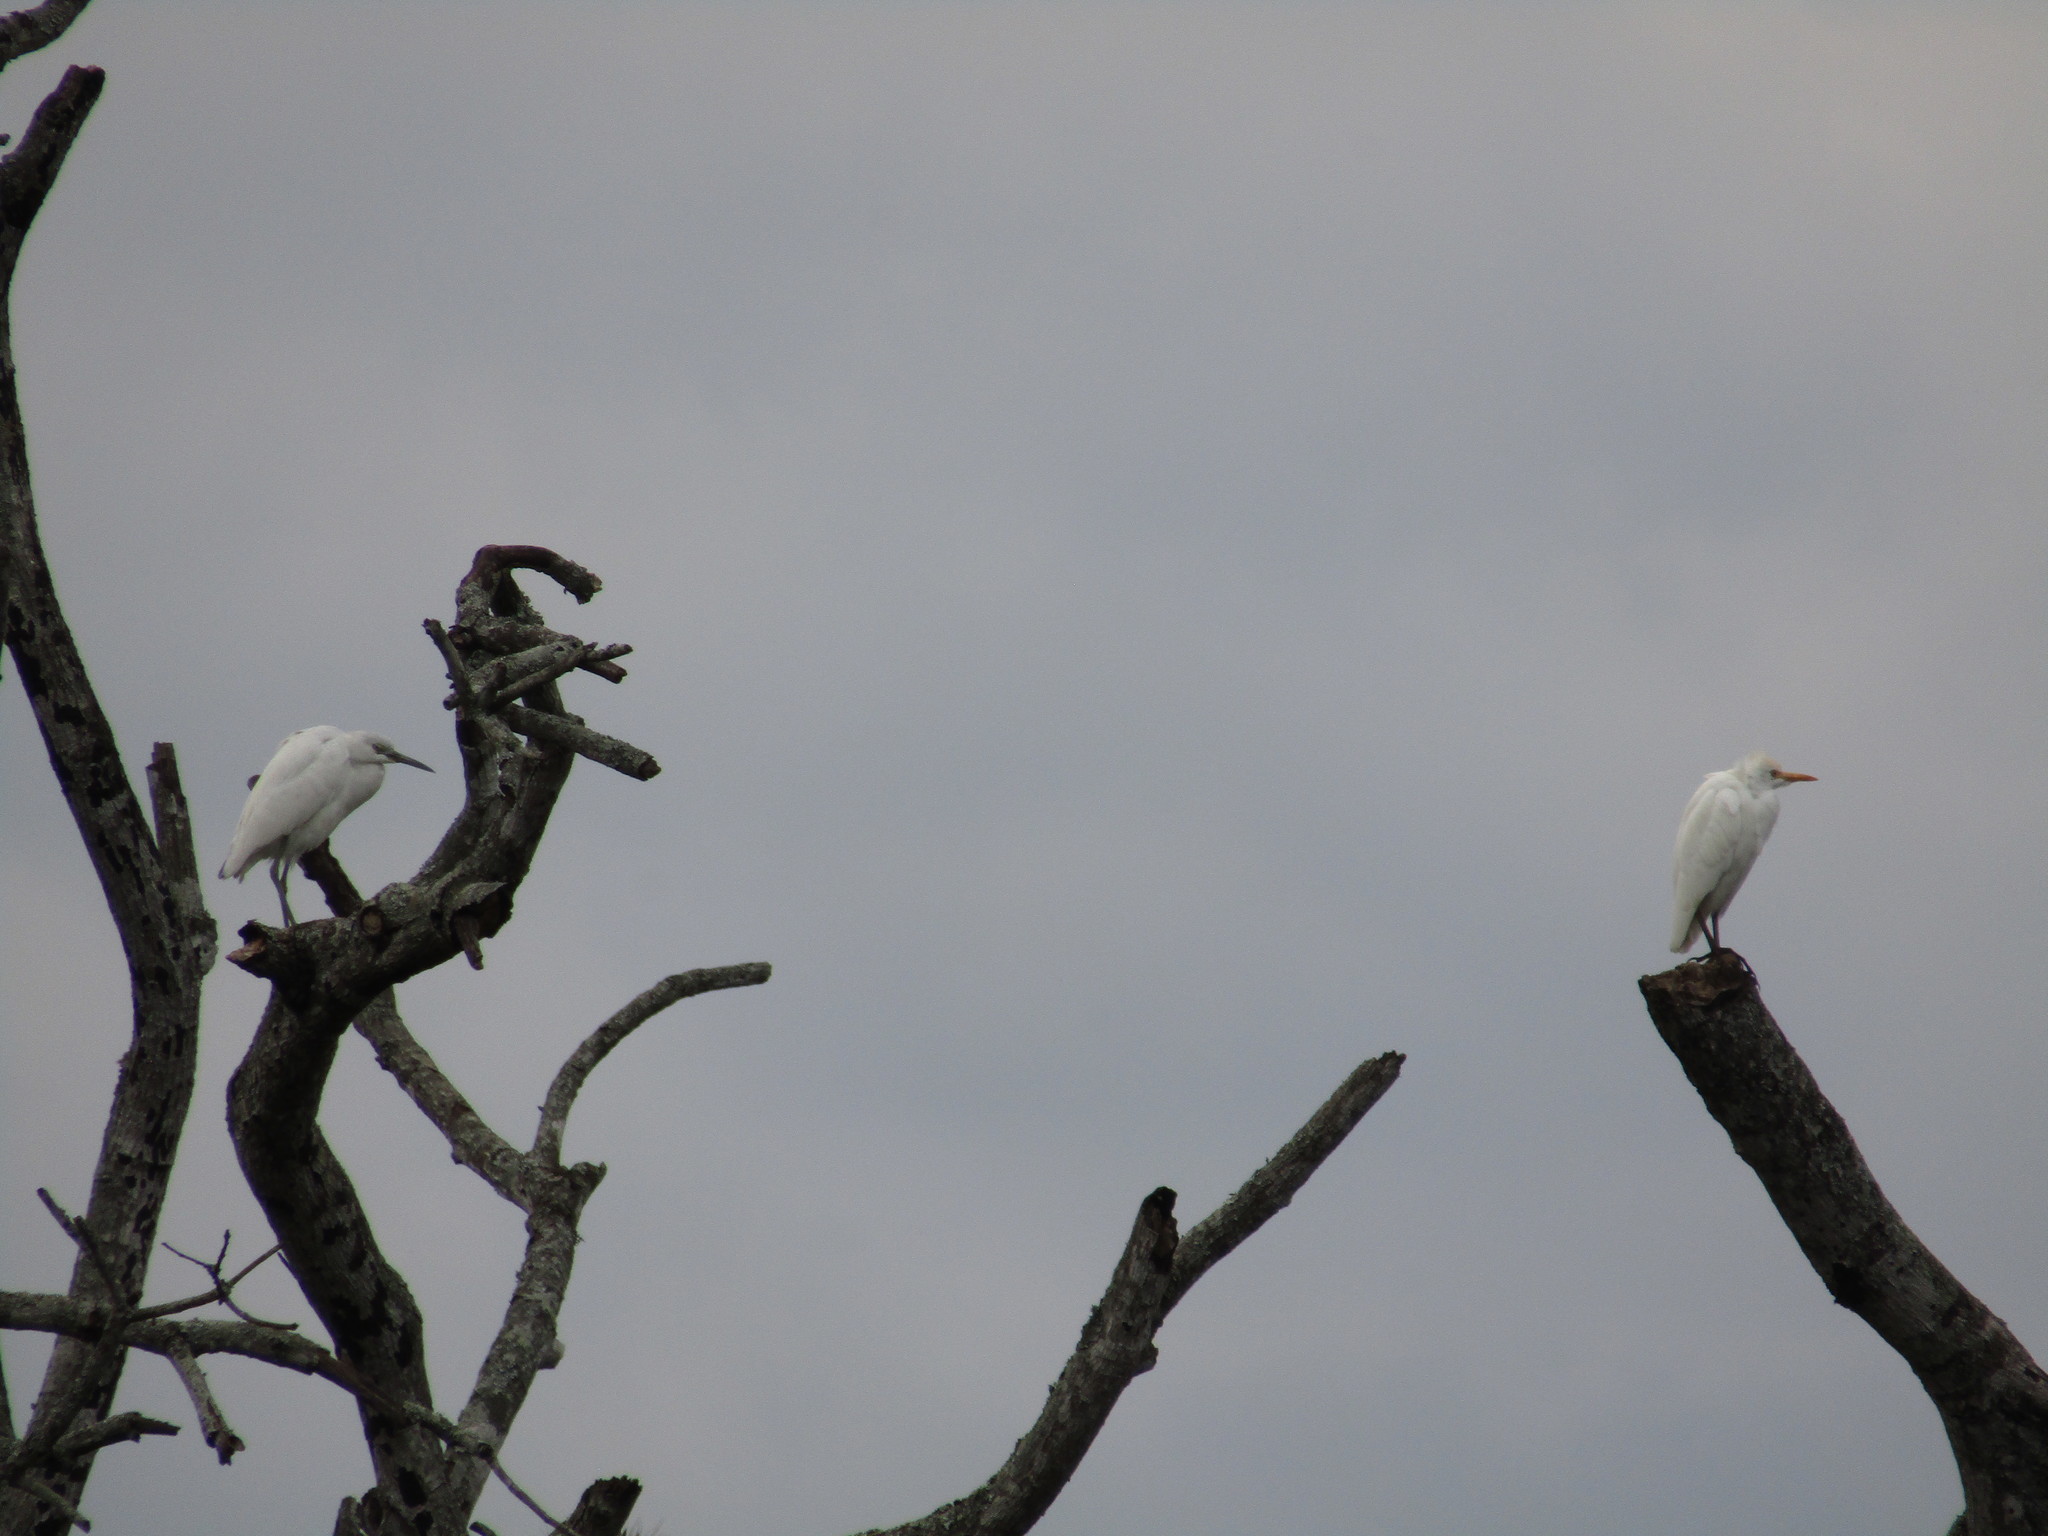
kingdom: Animalia
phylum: Chordata
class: Aves
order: Pelecaniformes
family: Ardeidae
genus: Bubulcus
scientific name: Bubulcus ibis
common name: Cattle egret
